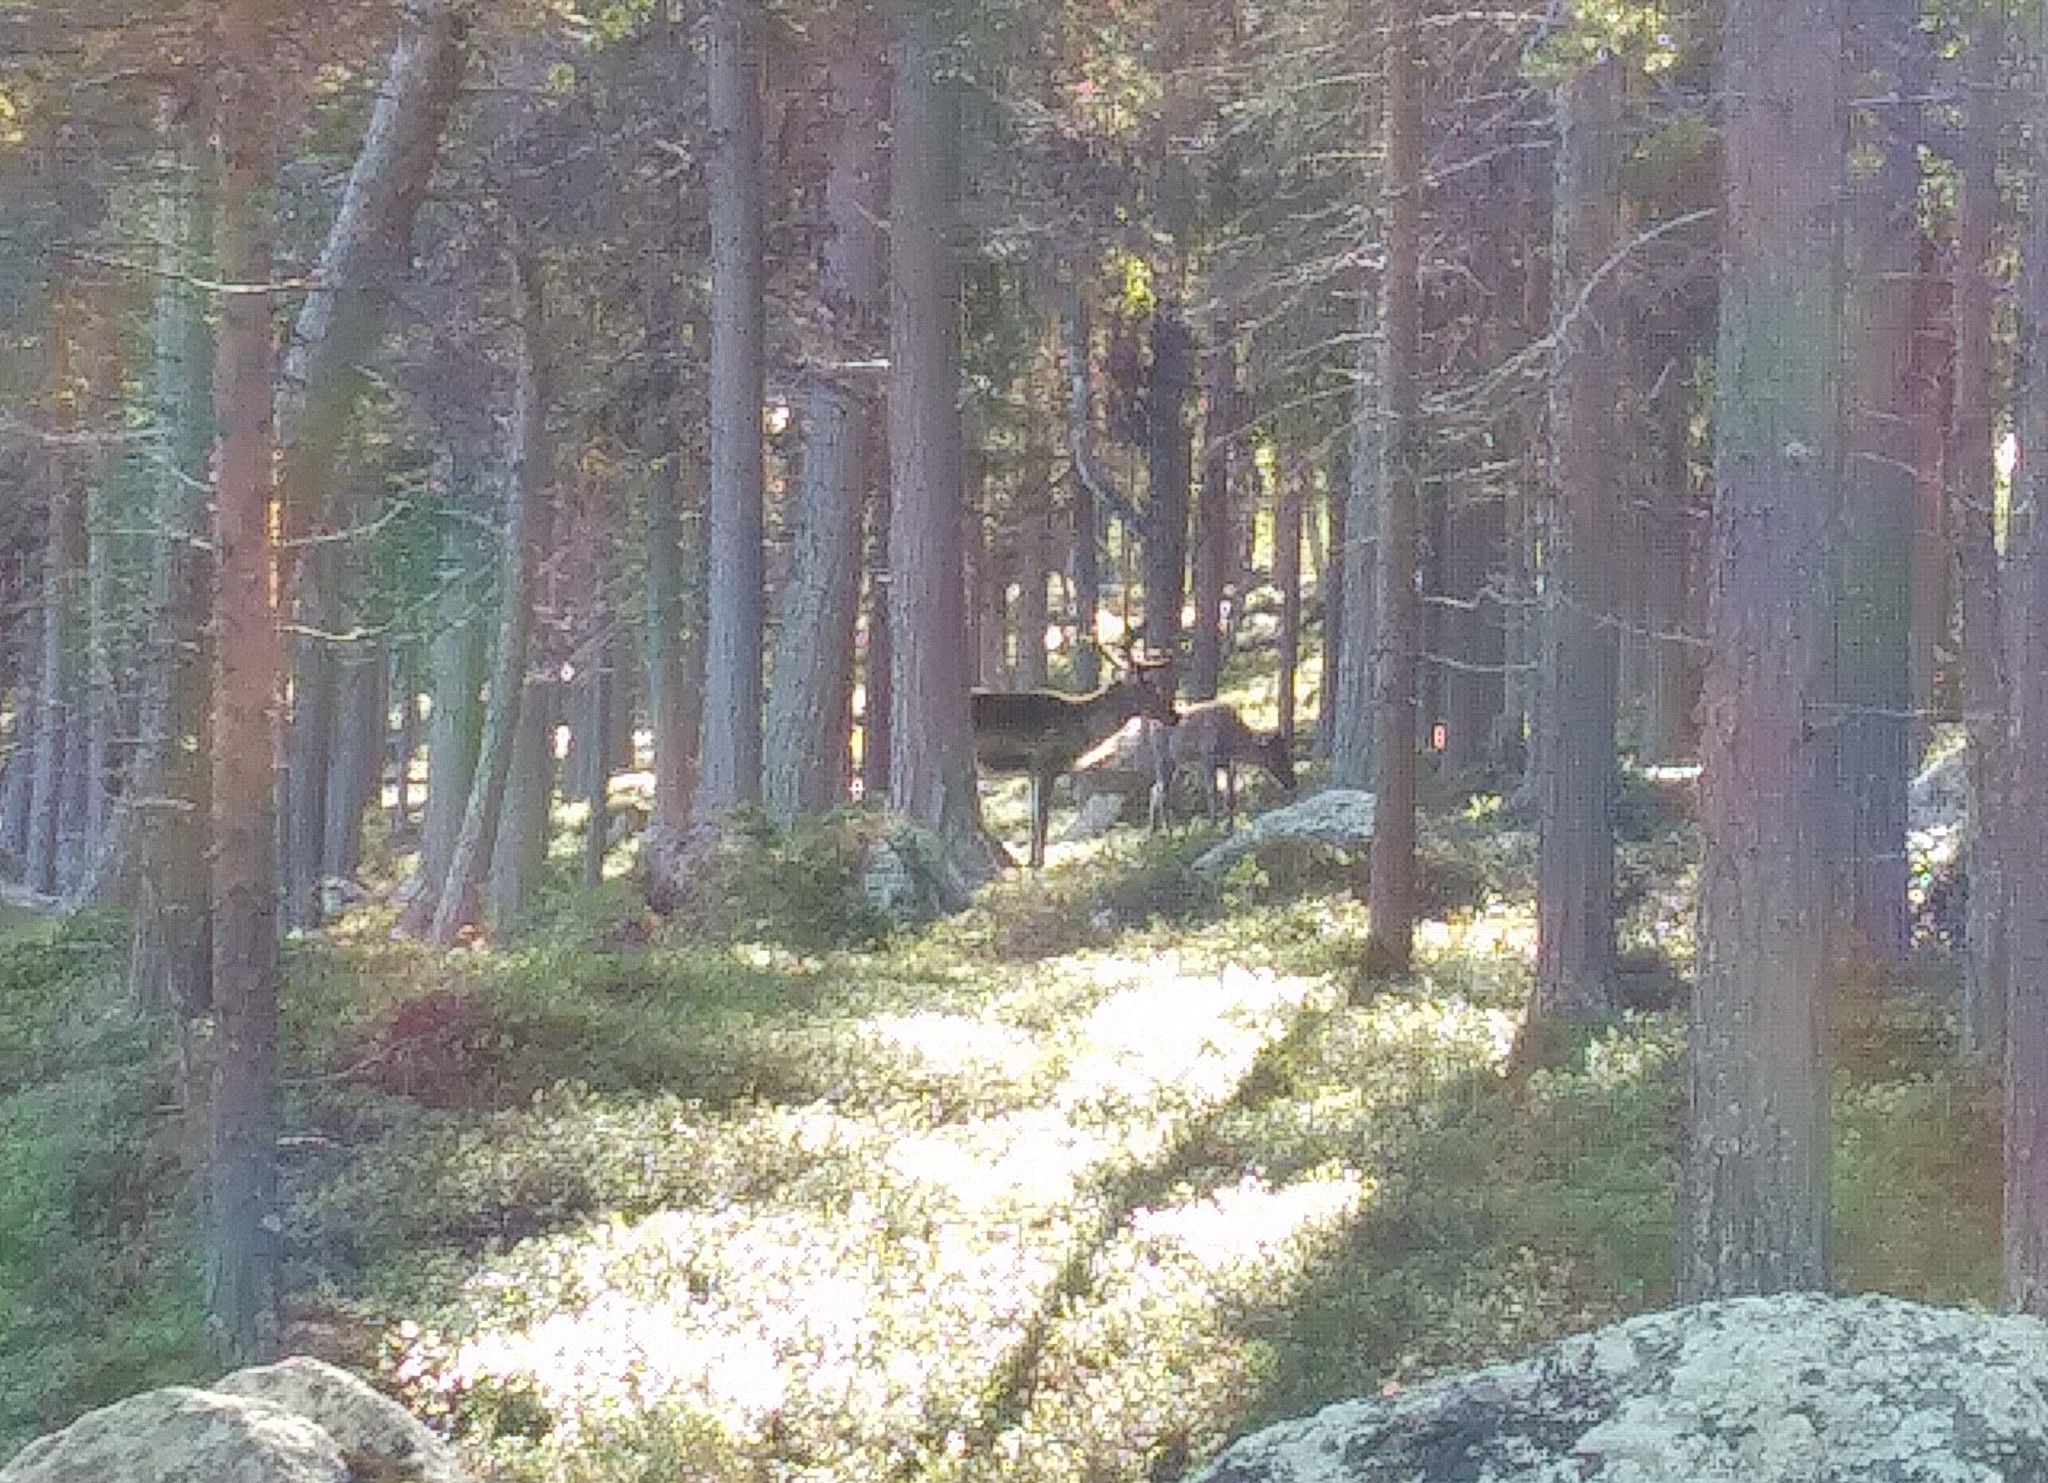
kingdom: Animalia
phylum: Chordata
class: Mammalia
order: Artiodactyla
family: Cervidae
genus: Rangifer
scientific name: Rangifer tarandus
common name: Reindeer
